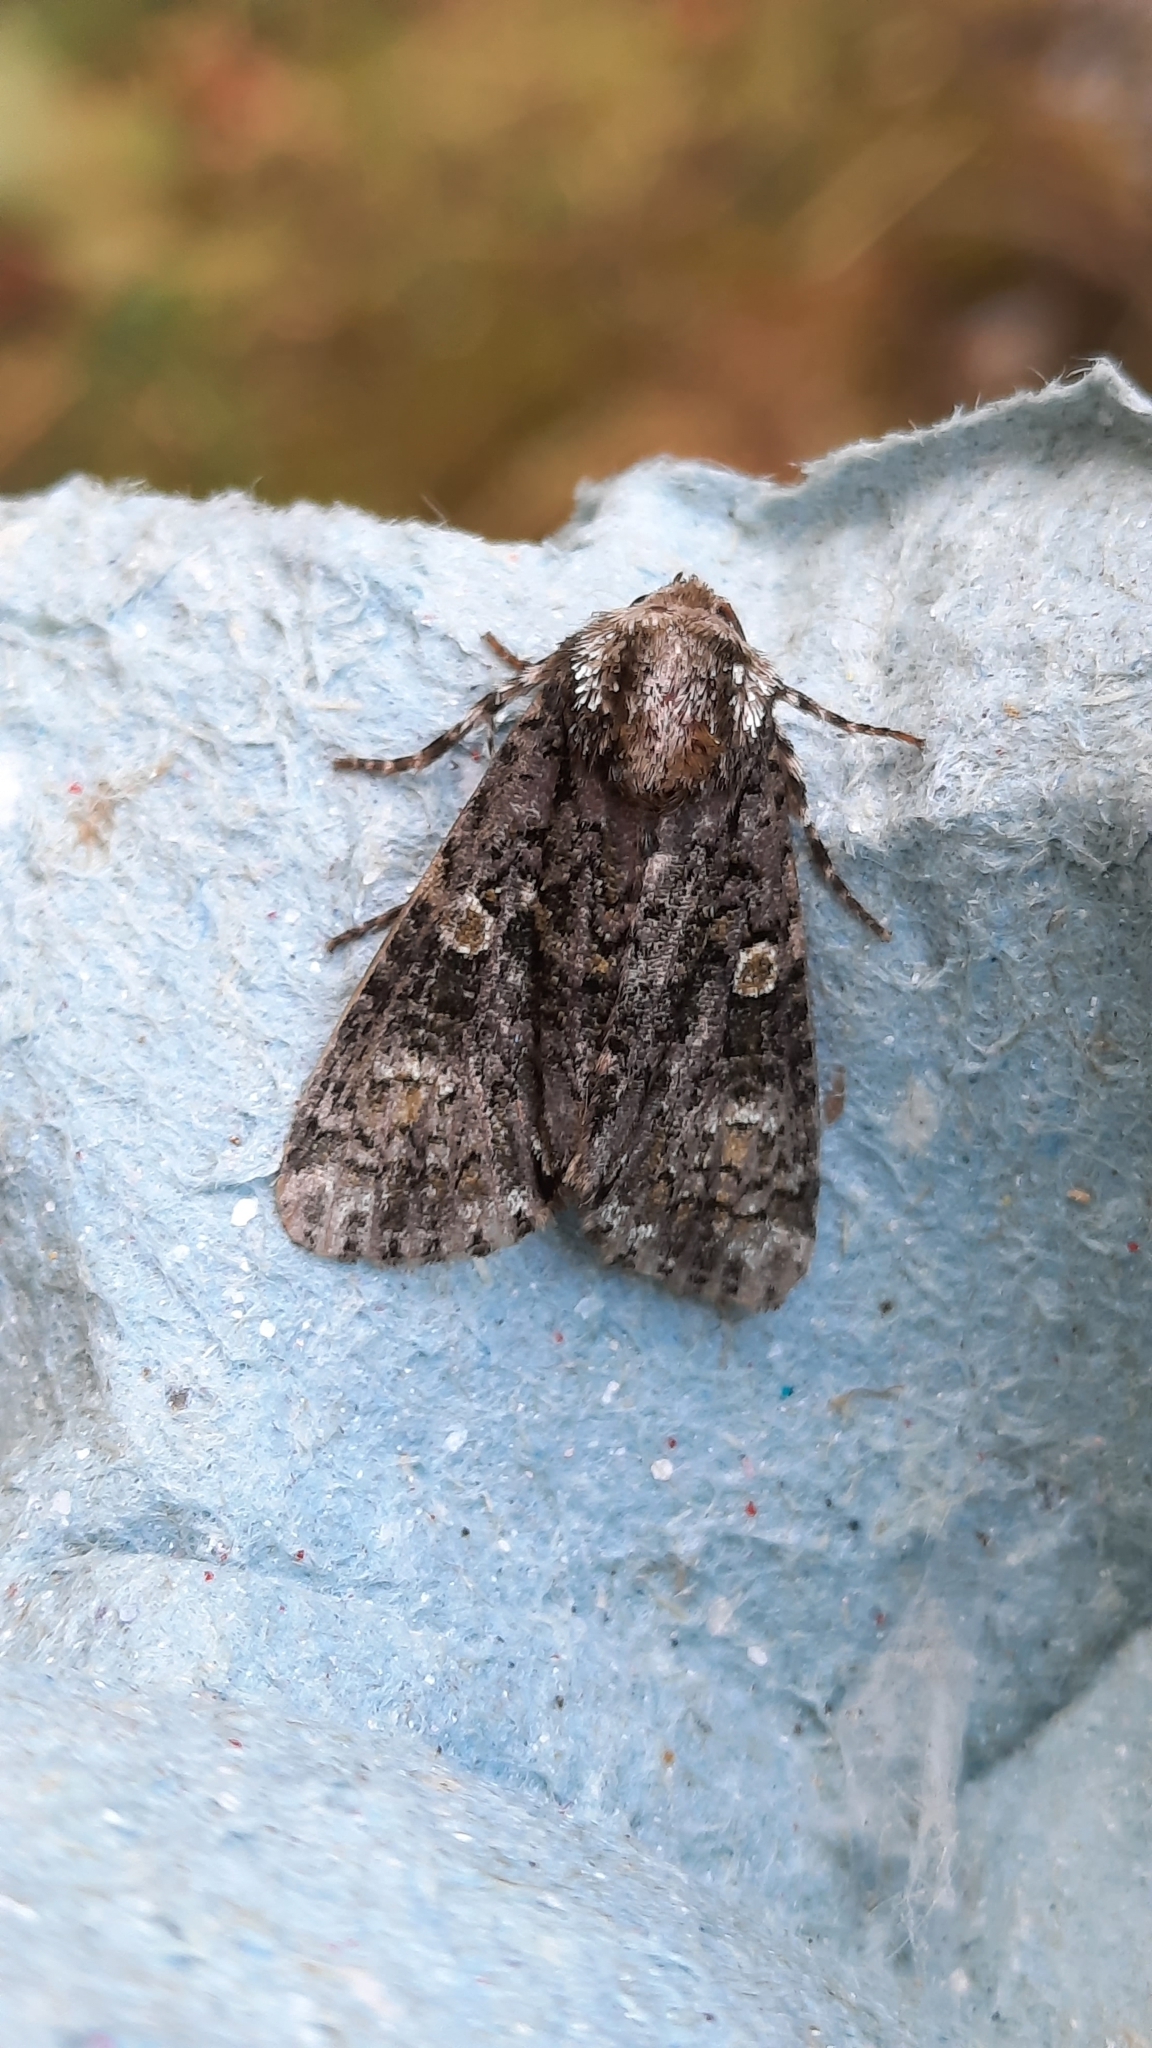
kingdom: Animalia
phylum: Arthropoda
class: Insecta
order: Lepidoptera
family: Noctuidae
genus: Craniophora
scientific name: Craniophora ligustri
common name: Coronet
